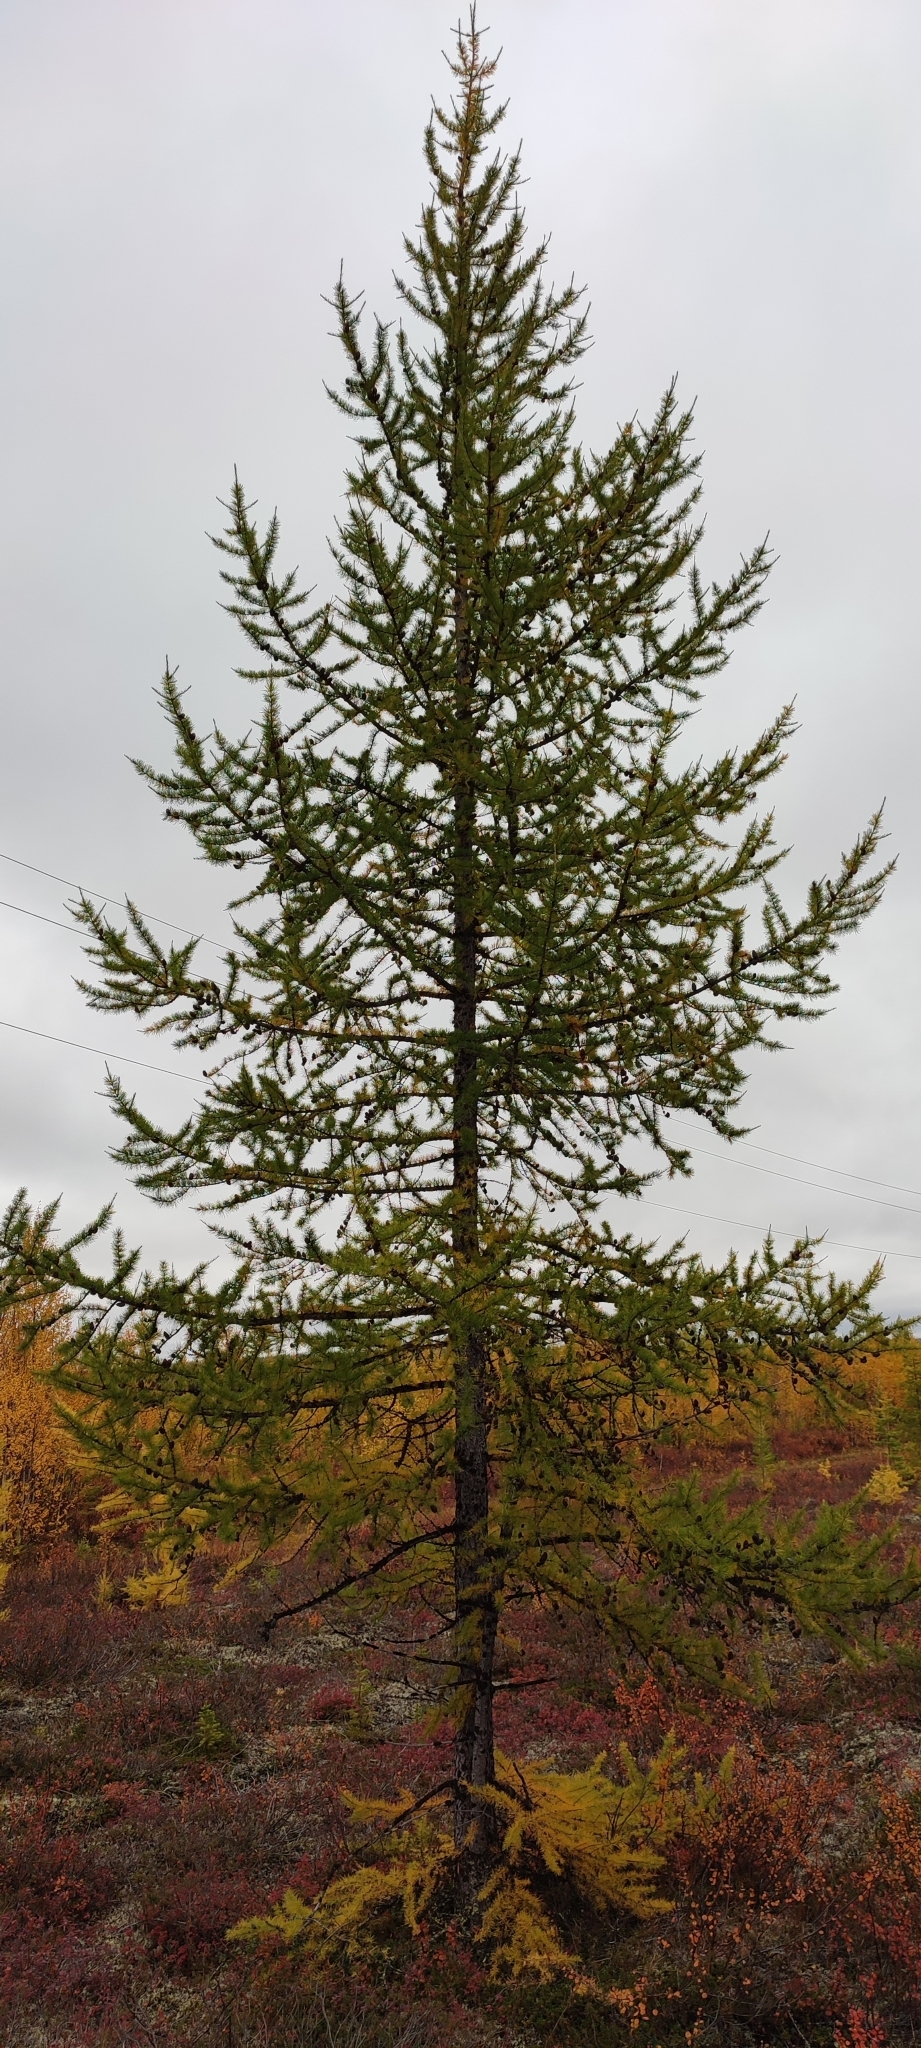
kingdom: Plantae
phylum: Tracheophyta
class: Pinopsida
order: Pinales
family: Pinaceae
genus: Larix
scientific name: Larix sibirica
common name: Siberian larch
